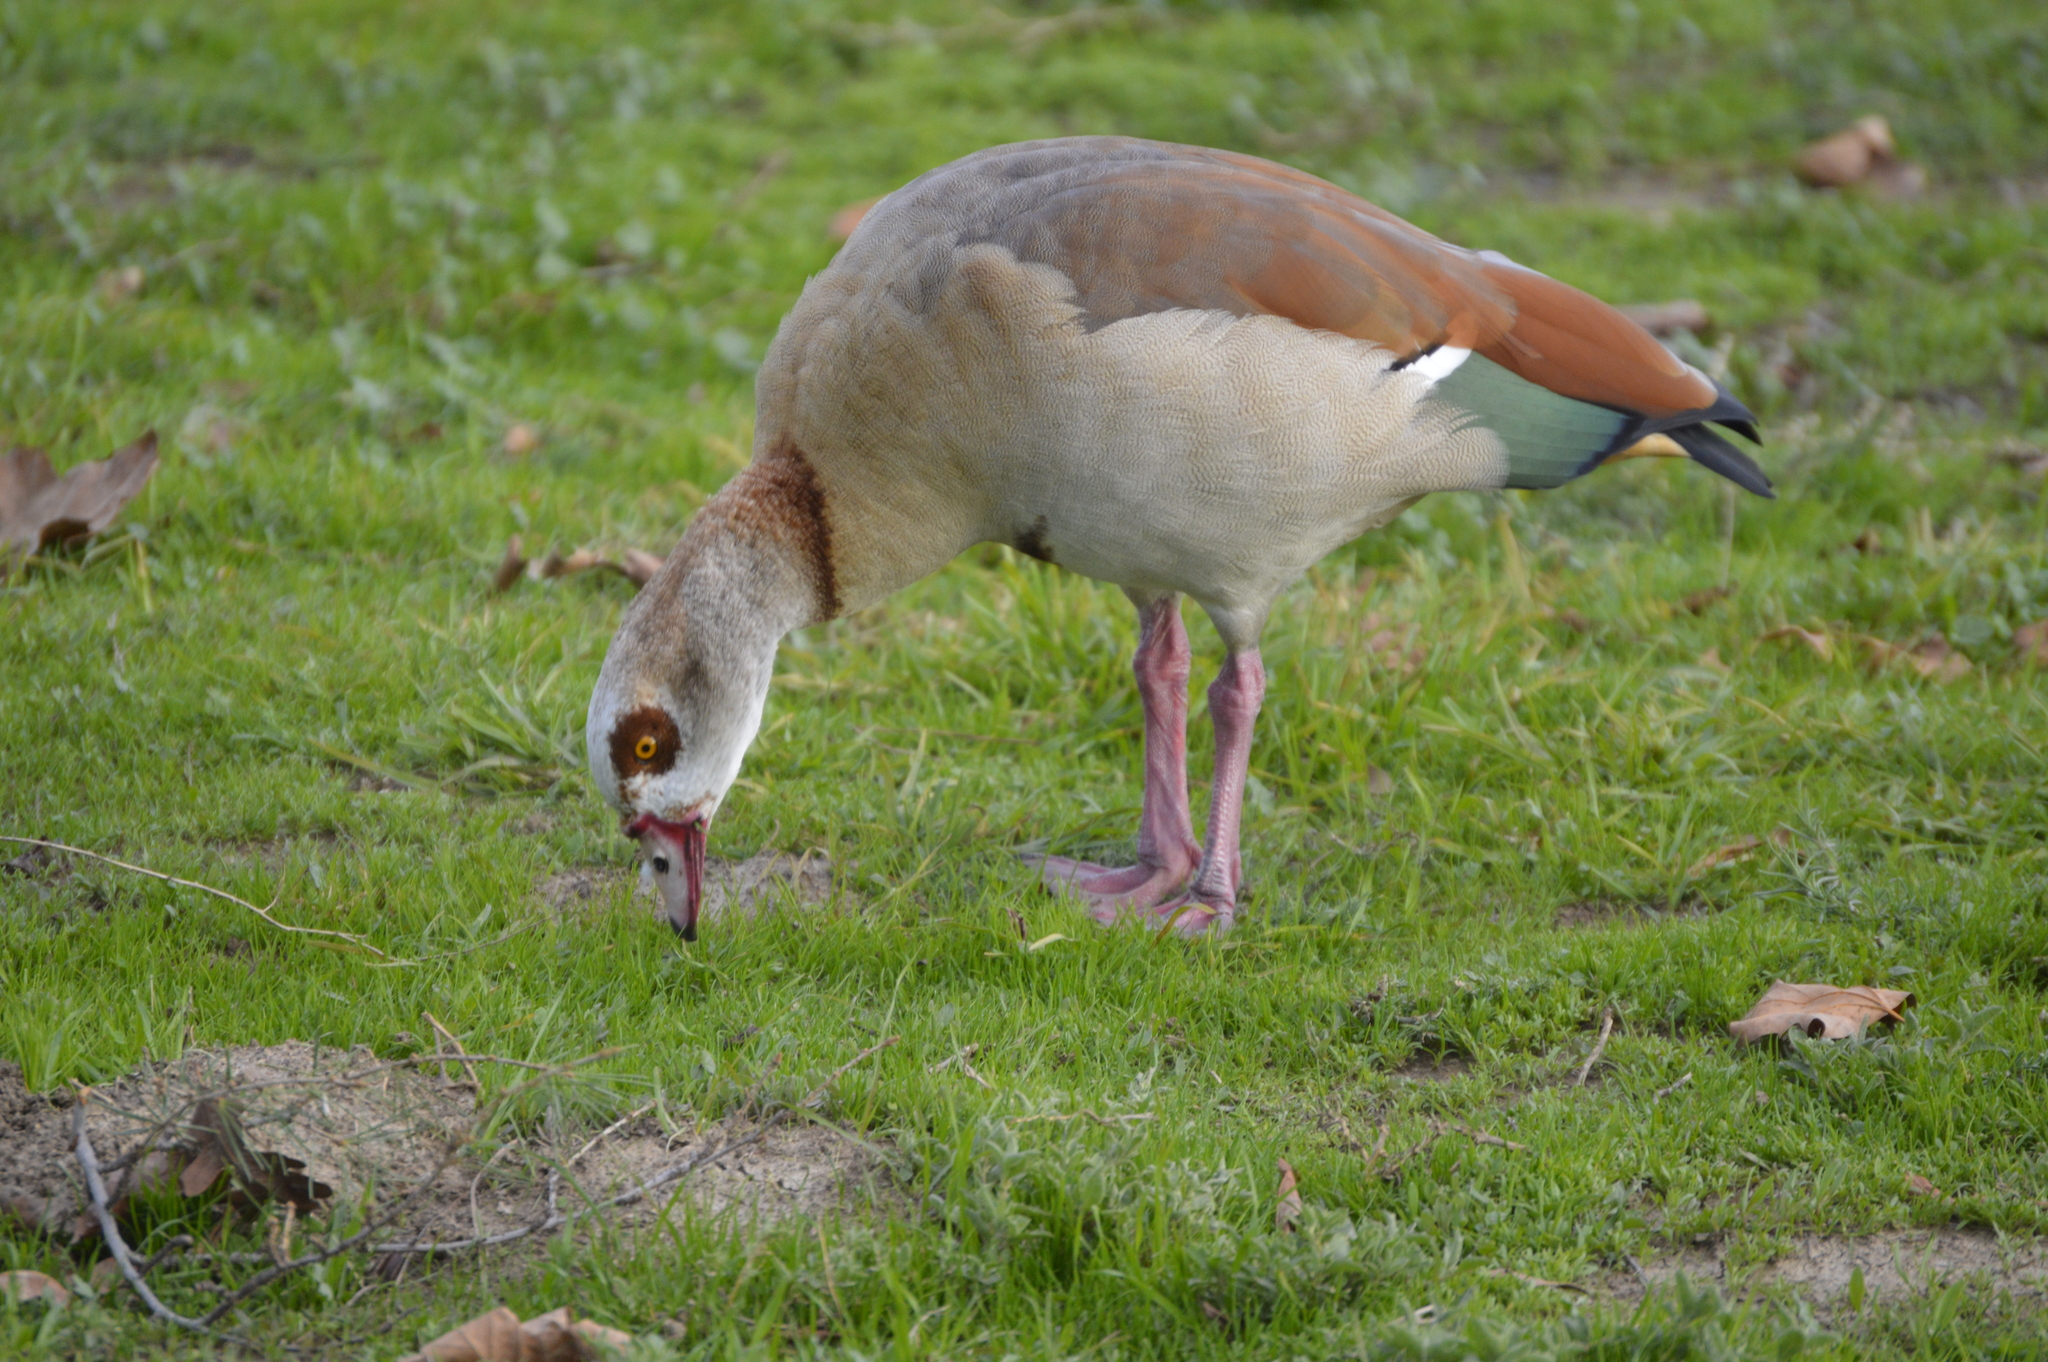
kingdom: Animalia
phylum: Chordata
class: Aves
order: Anseriformes
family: Anatidae
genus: Alopochen
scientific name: Alopochen aegyptiaca
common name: Egyptian goose
